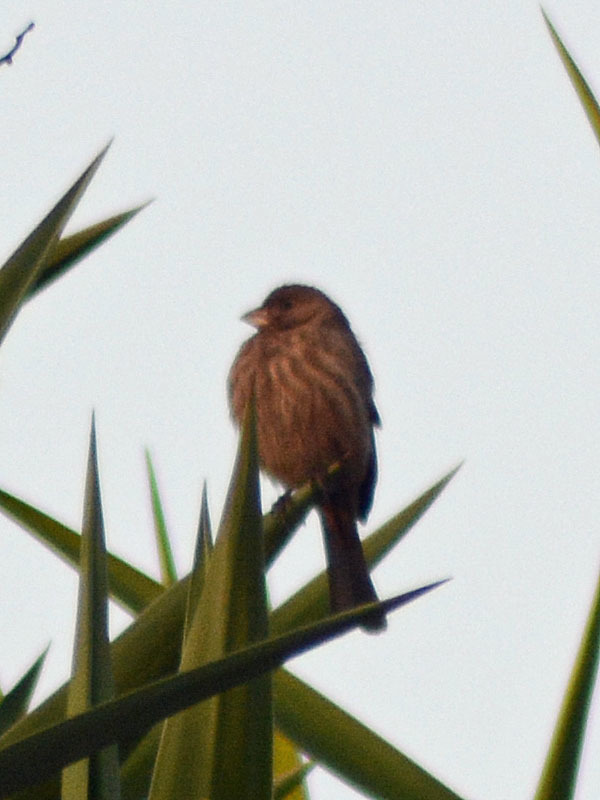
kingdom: Animalia
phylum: Chordata
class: Aves
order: Passeriformes
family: Fringillidae
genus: Haemorhous
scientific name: Haemorhous mexicanus
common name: House finch
